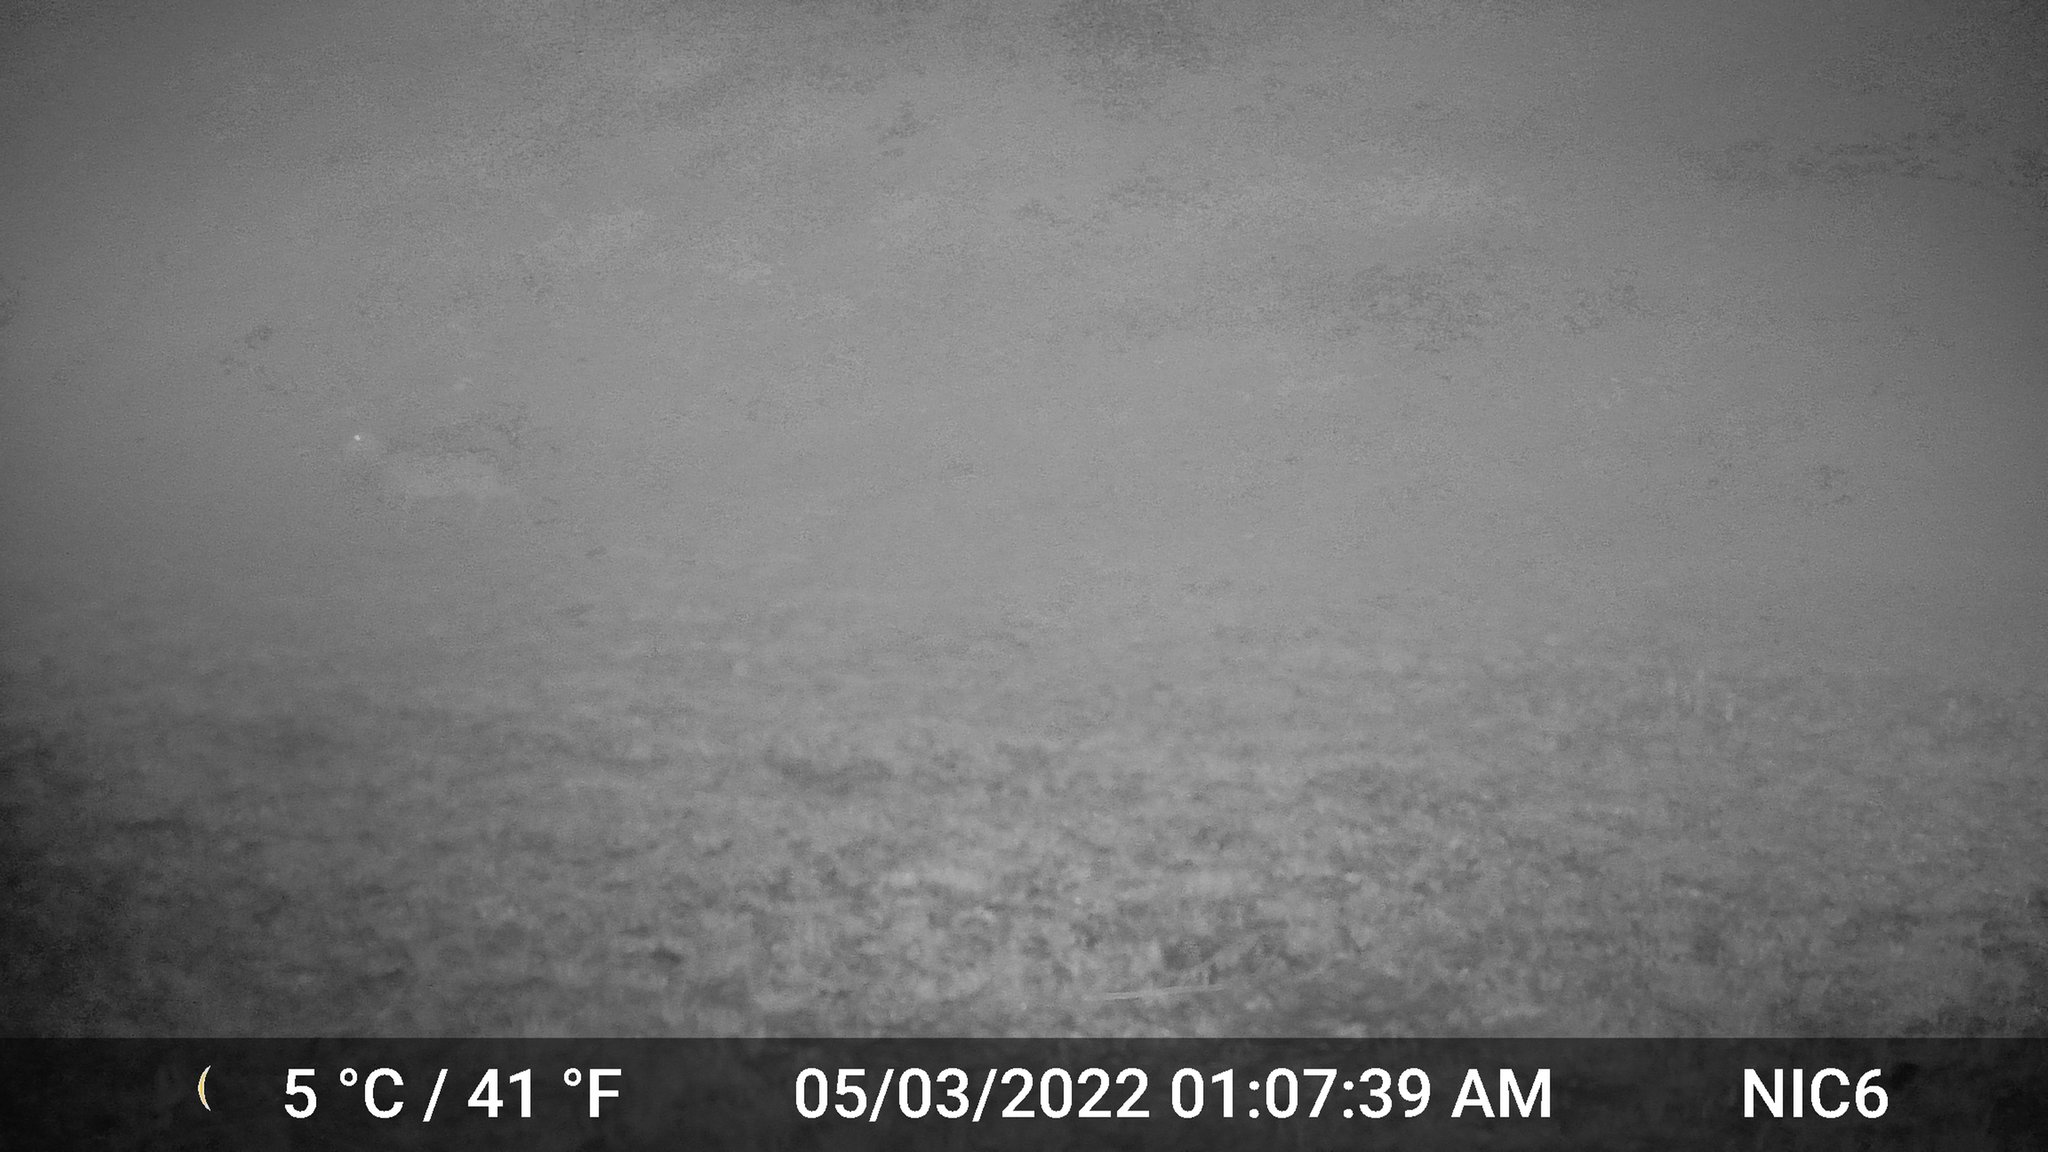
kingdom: Animalia
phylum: Chordata
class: Mammalia
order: Artiodactyla
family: Cervidae
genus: Odocoileus
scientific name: Odocoileus virginianus
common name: White-tailed deer
